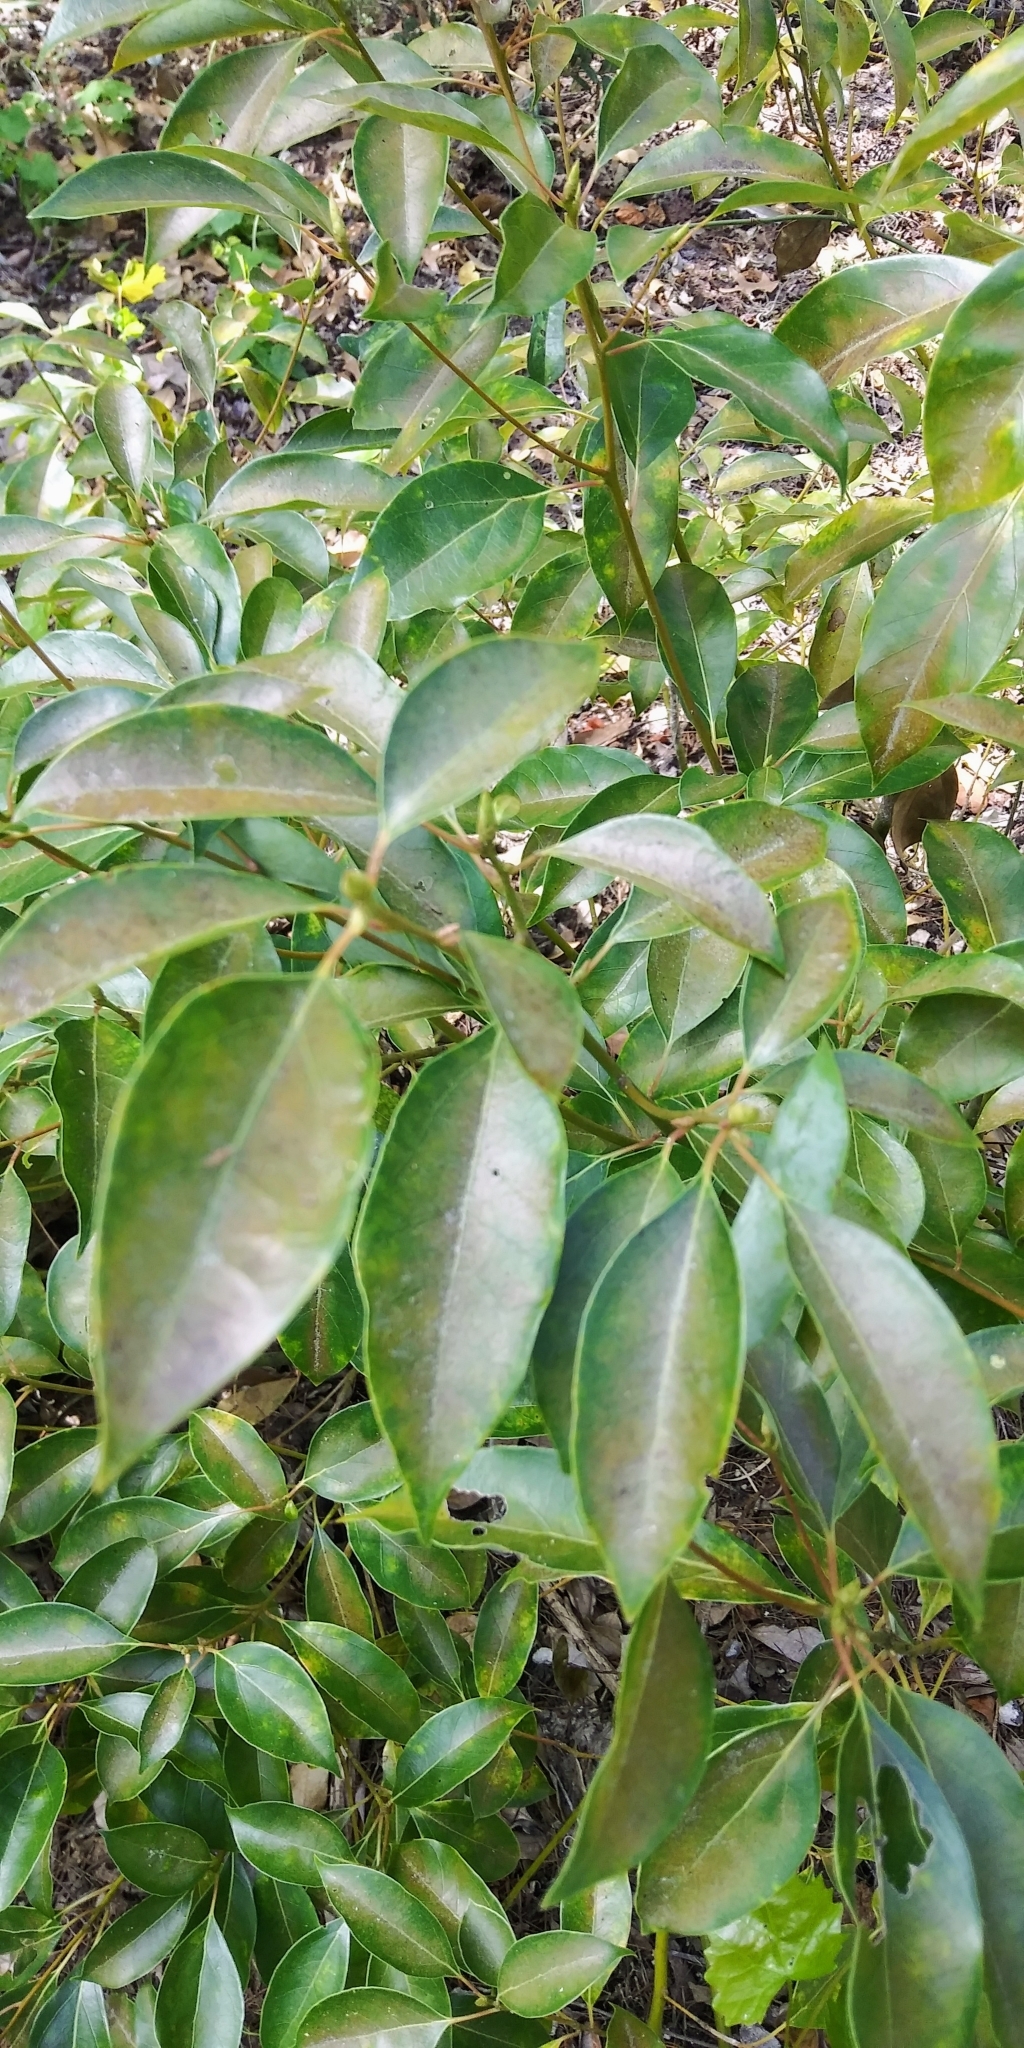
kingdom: Plantae
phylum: Tracheophyta
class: Magnoliopsida
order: Laurales
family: Lauraceae
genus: Cinnamomum
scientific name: Cinnamomum camphora
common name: Camphortree
